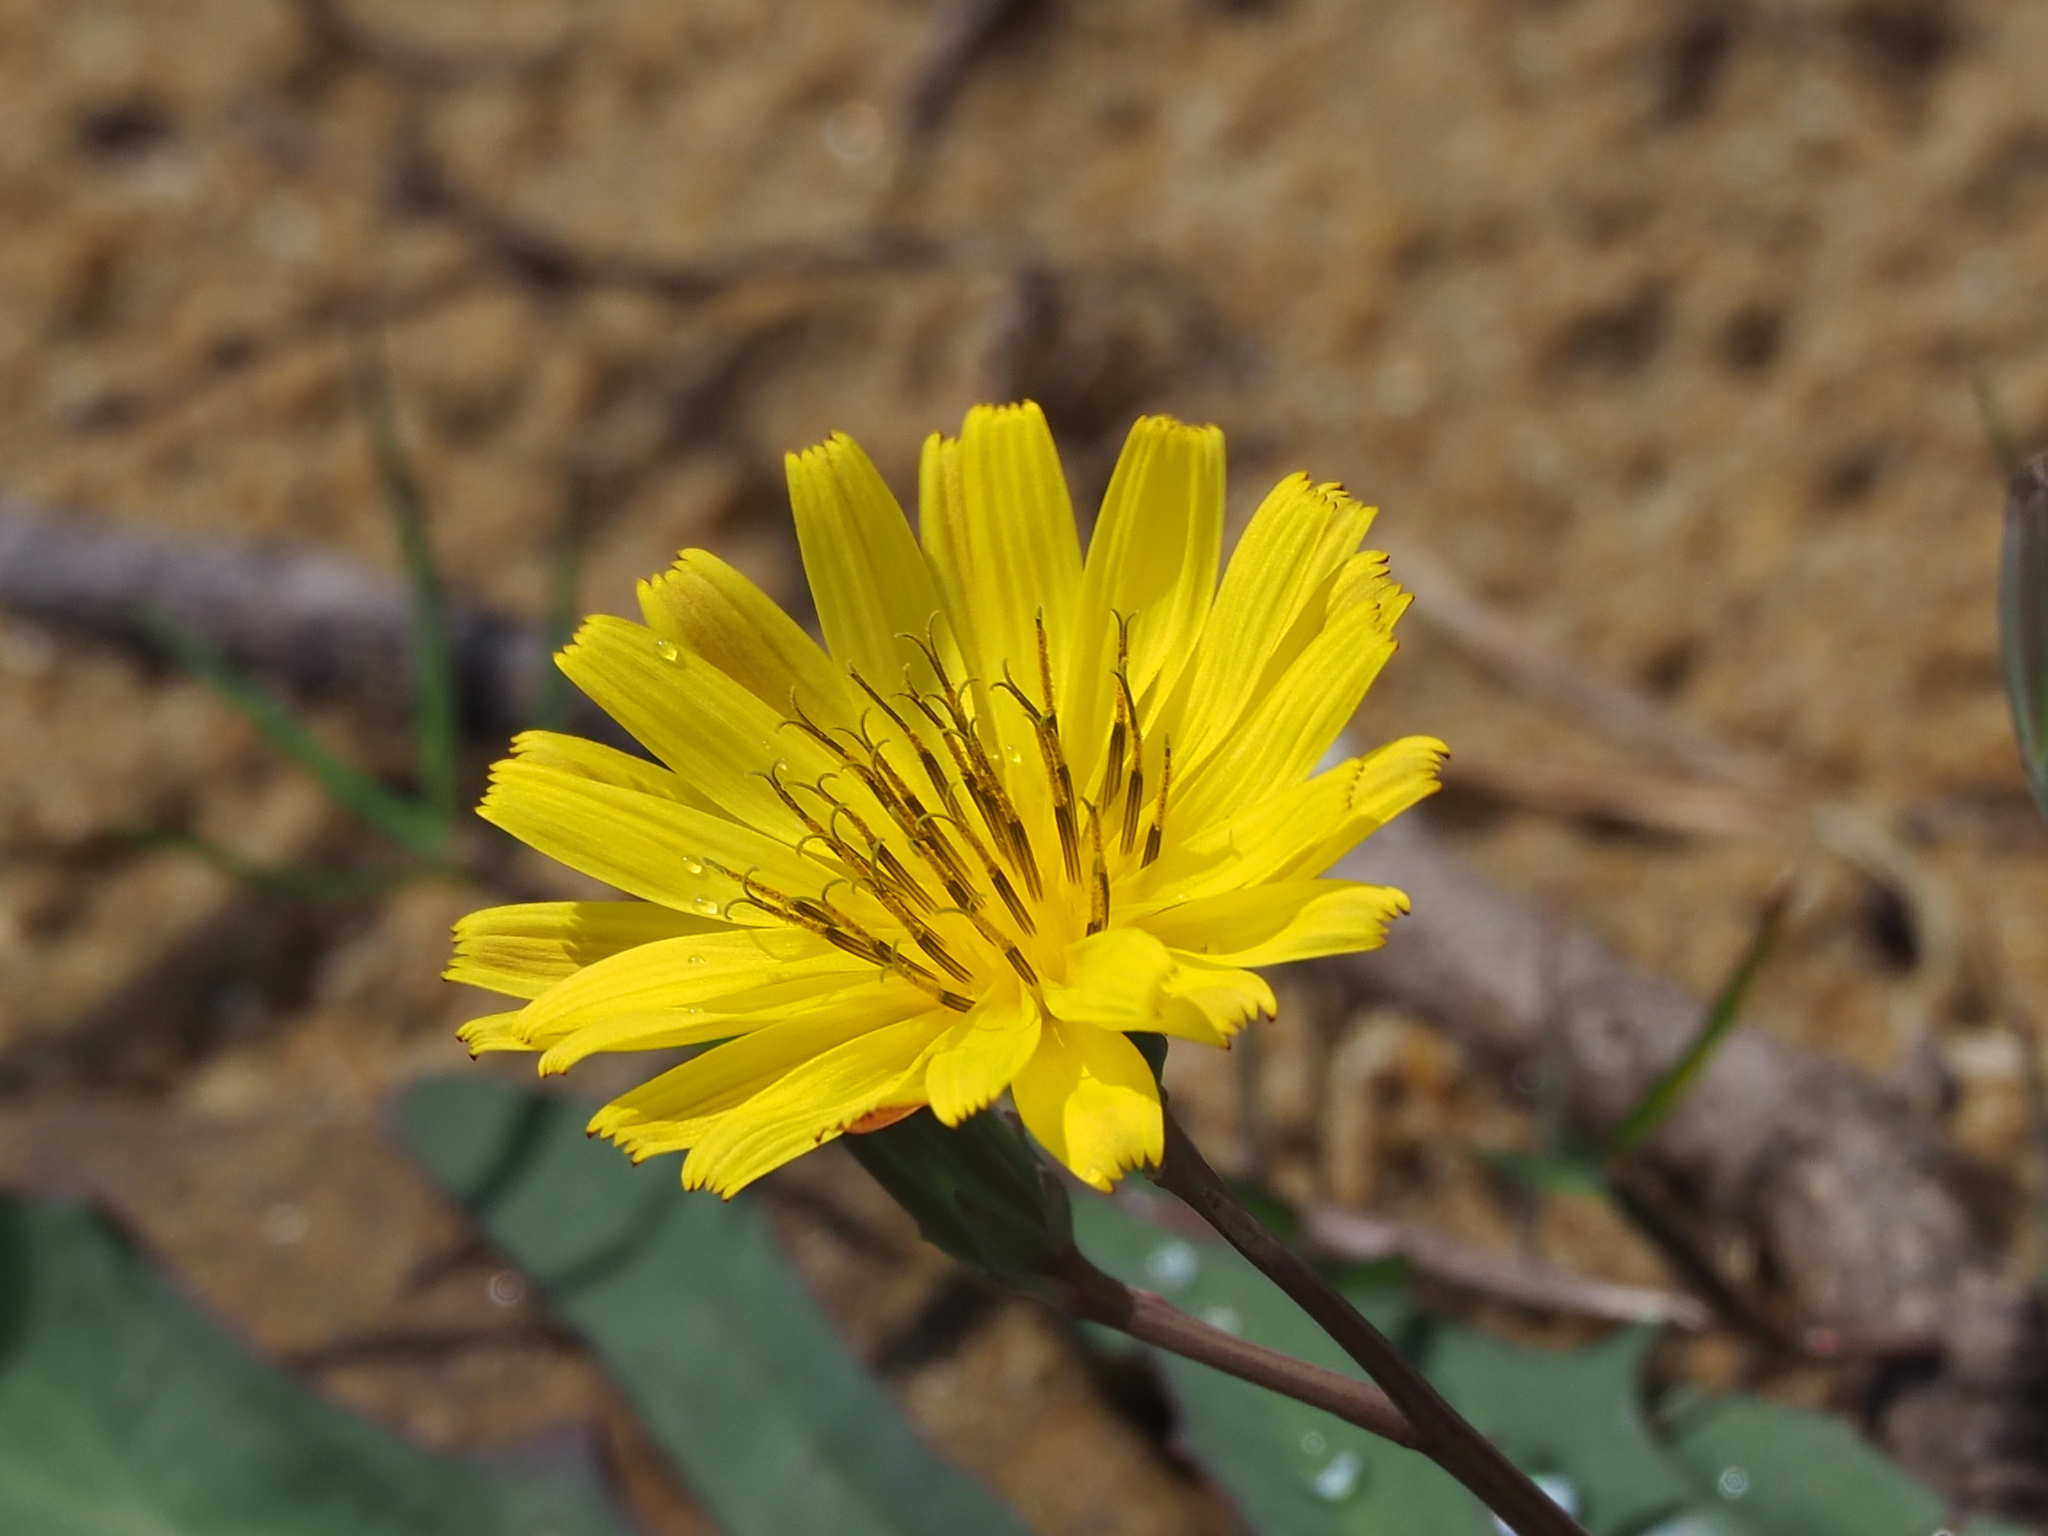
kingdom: Plantae
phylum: Tracheophyta
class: Magnoliopsida
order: Asterales
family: Asteraceae
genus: Ixeris
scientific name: Ixeris japonica
